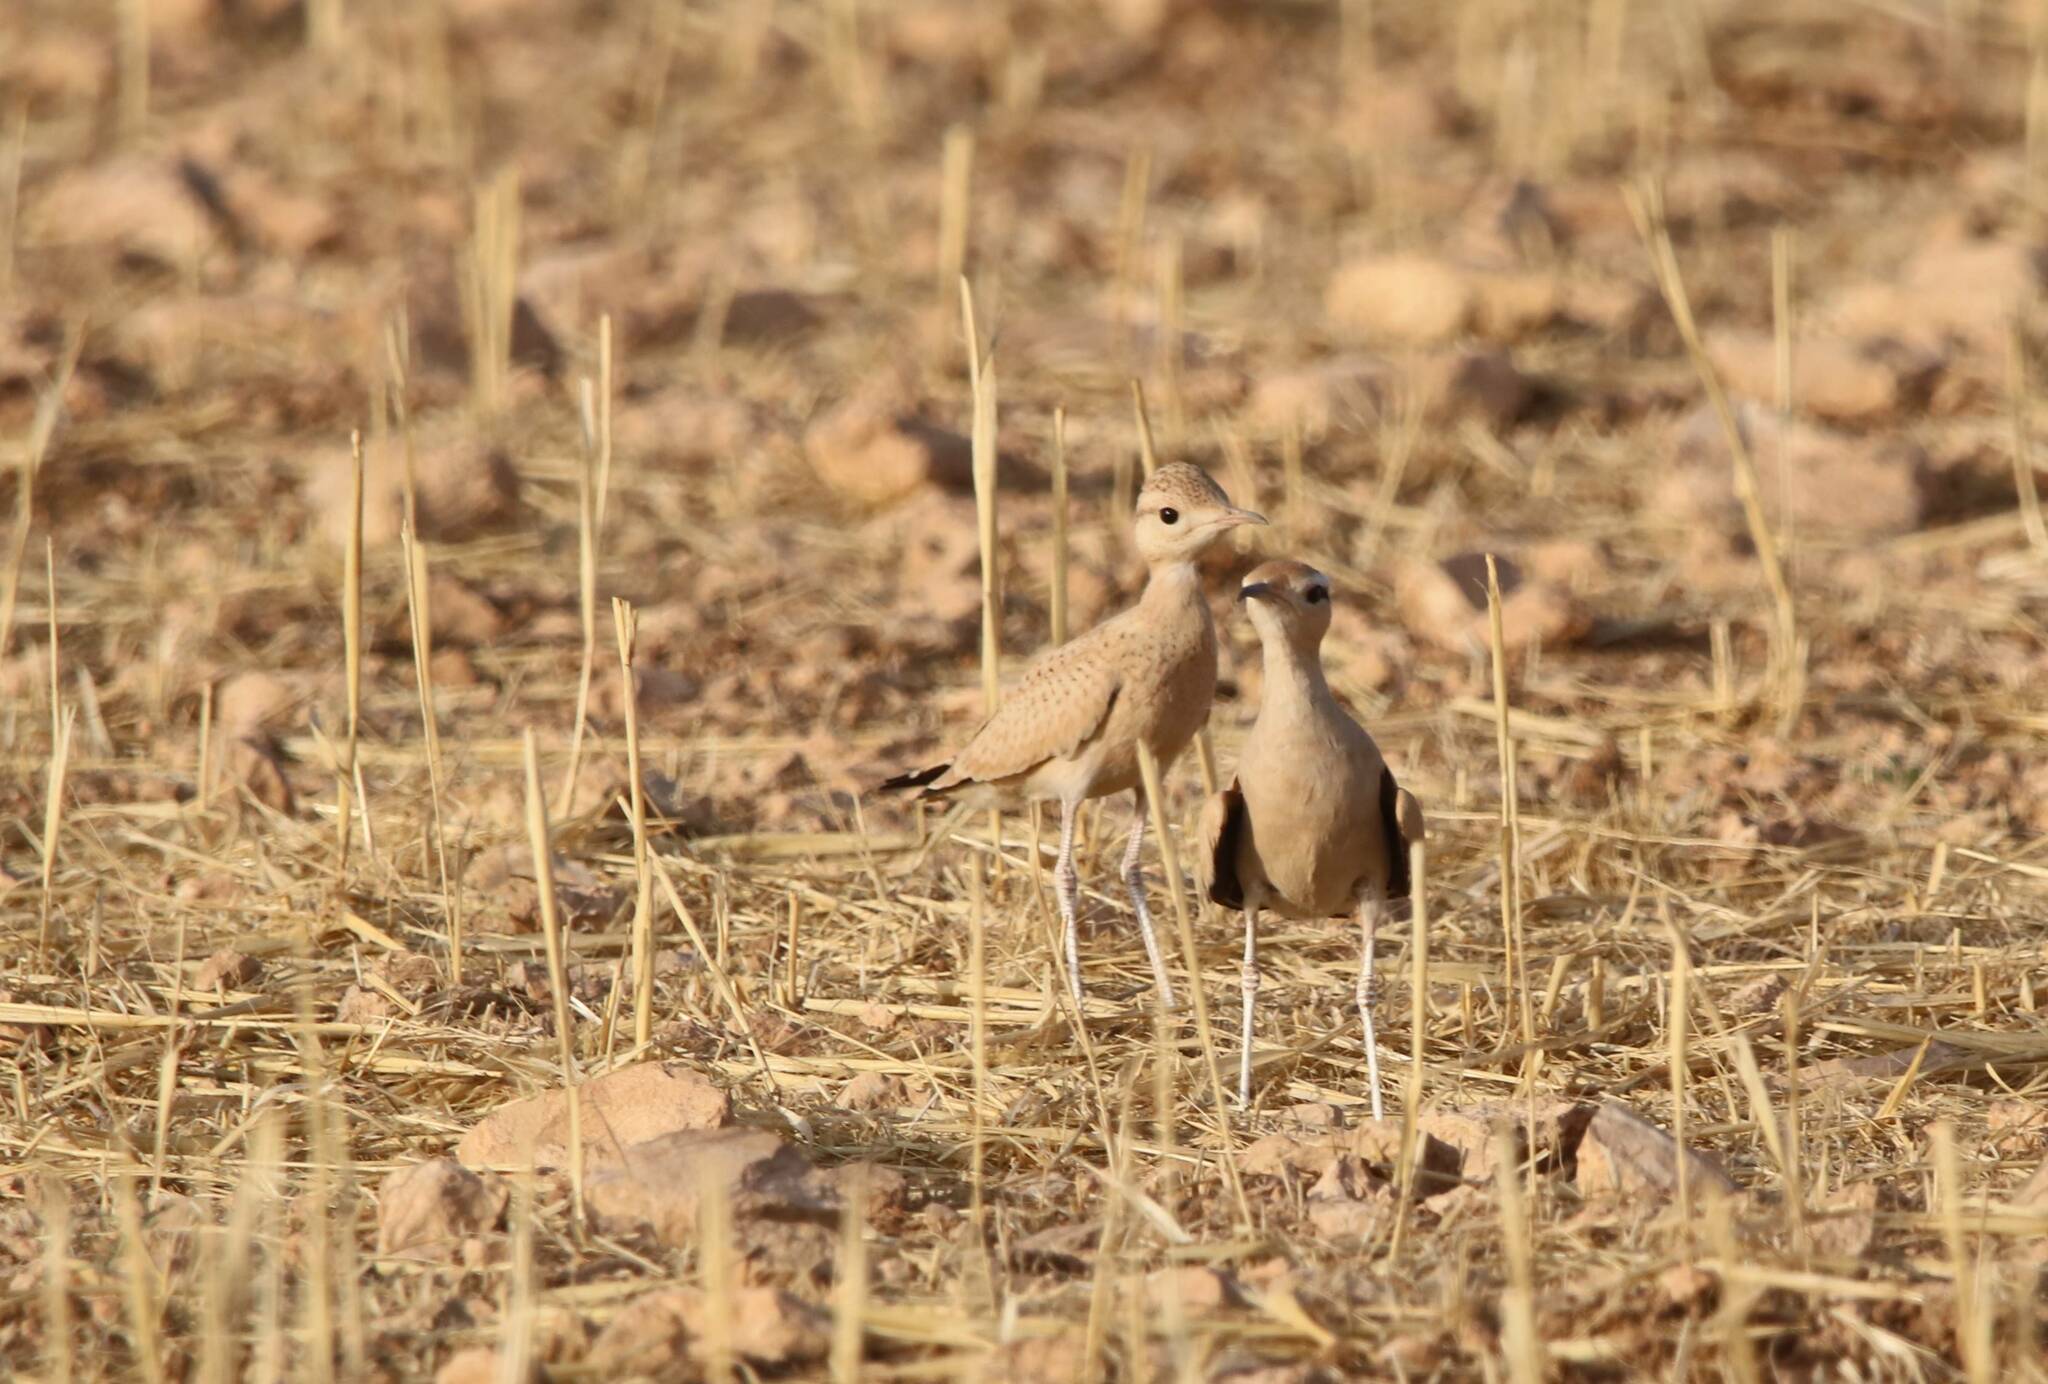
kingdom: Animalia
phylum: Chordata
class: Aves
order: Charadriiformes
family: Glareolidae
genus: Cursorius
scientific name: Cursorius cursor
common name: Cream-colored courser
